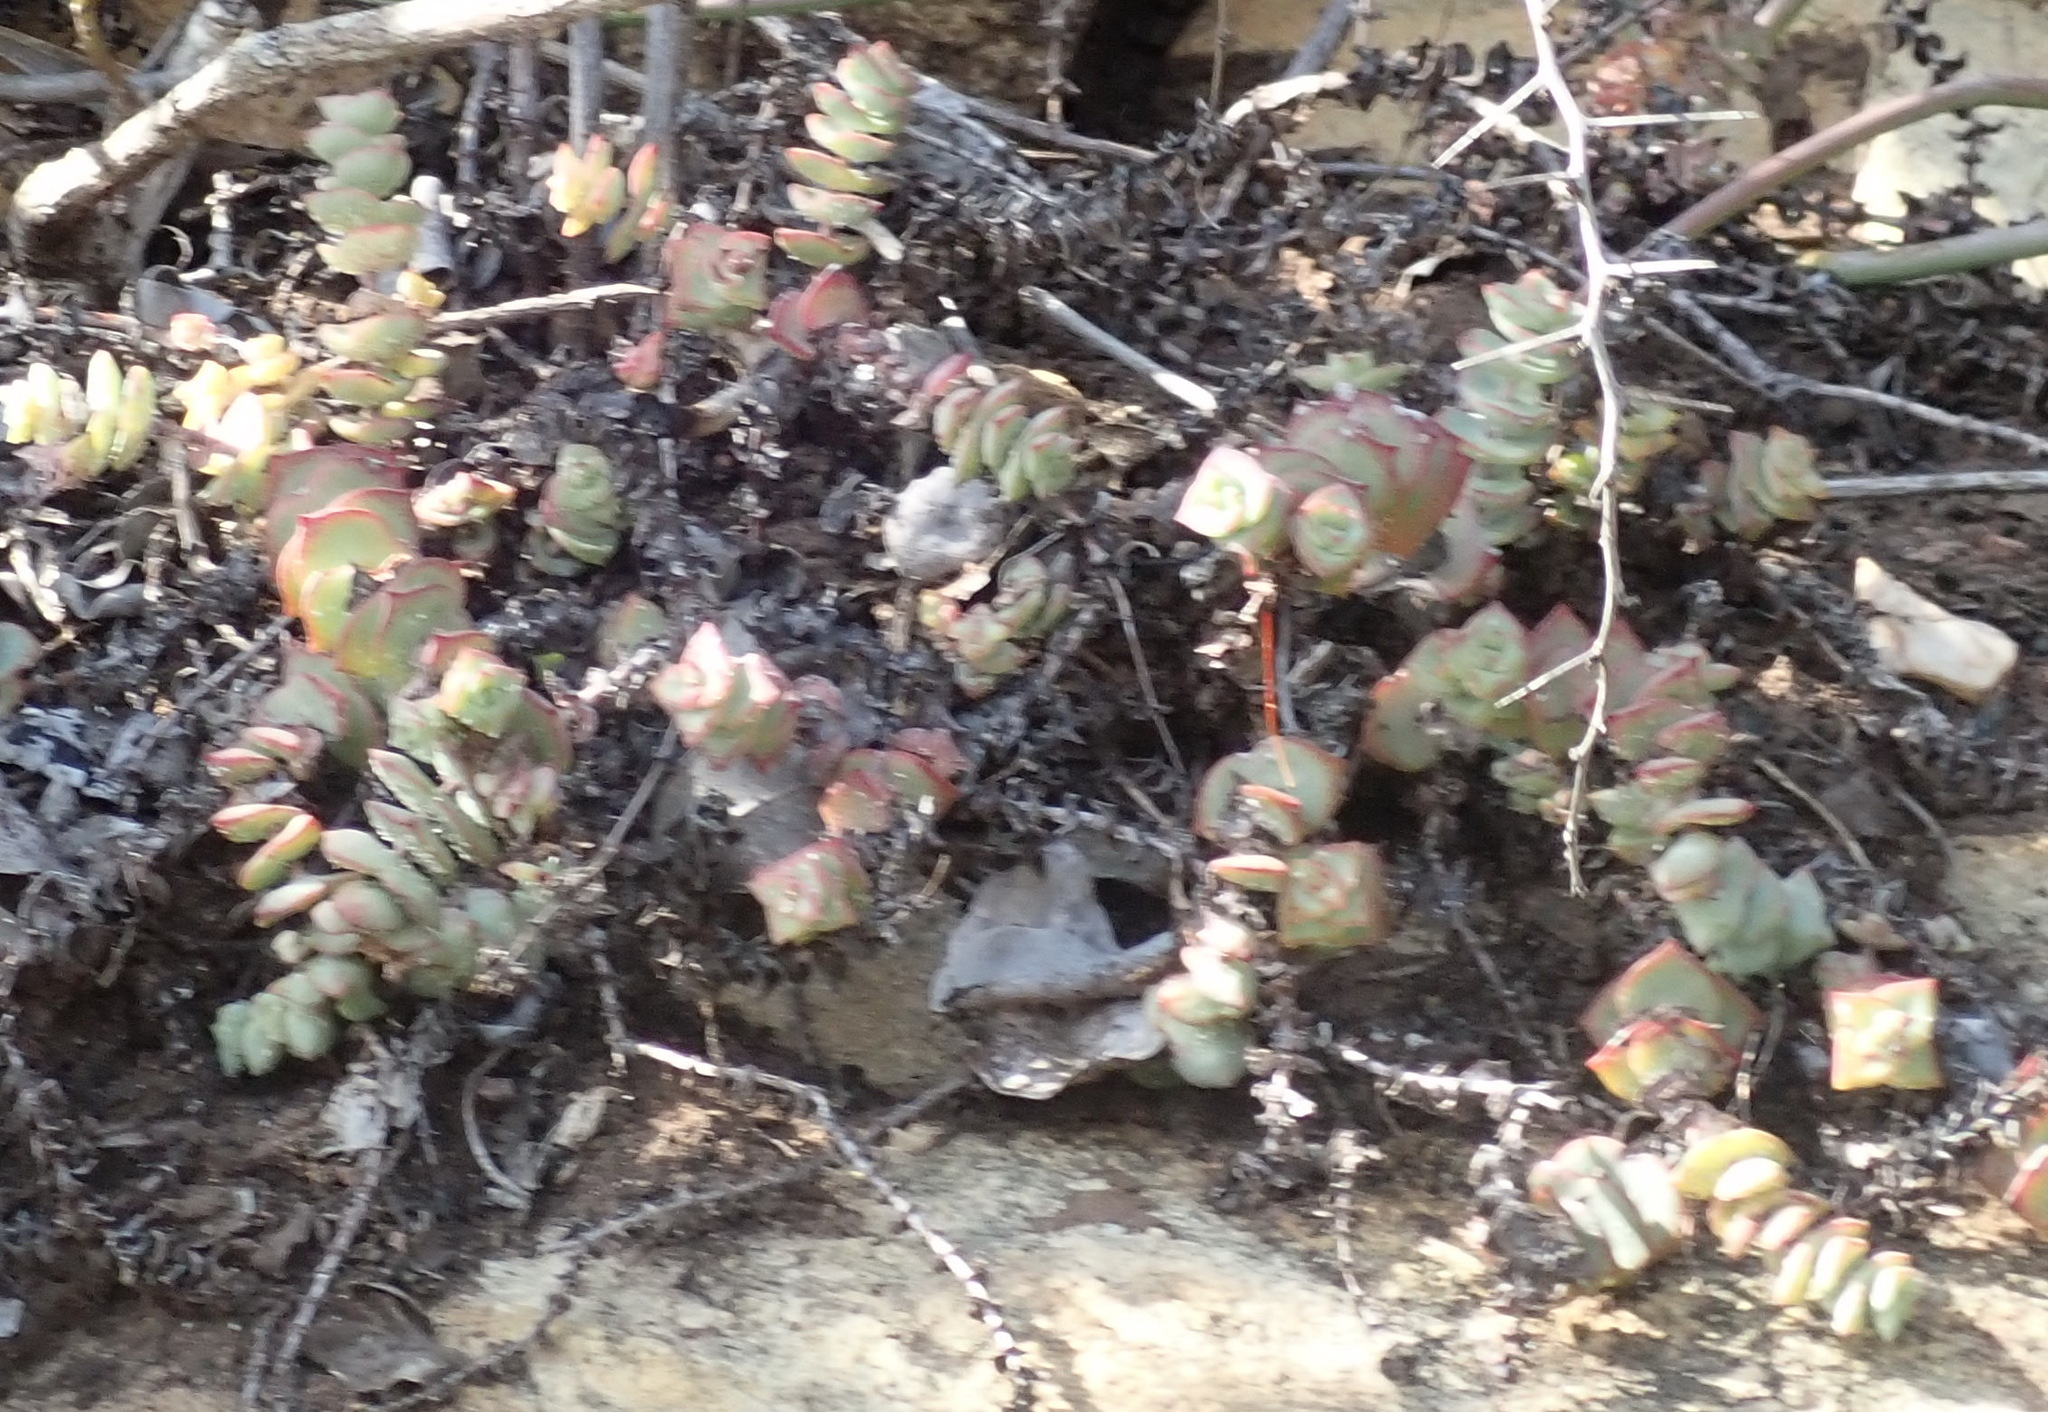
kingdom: Plantae
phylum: Tracheophyta
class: Magnoliopsida
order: Saxifragales
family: Crassulaceae
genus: Crassula
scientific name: Crassula perforata
